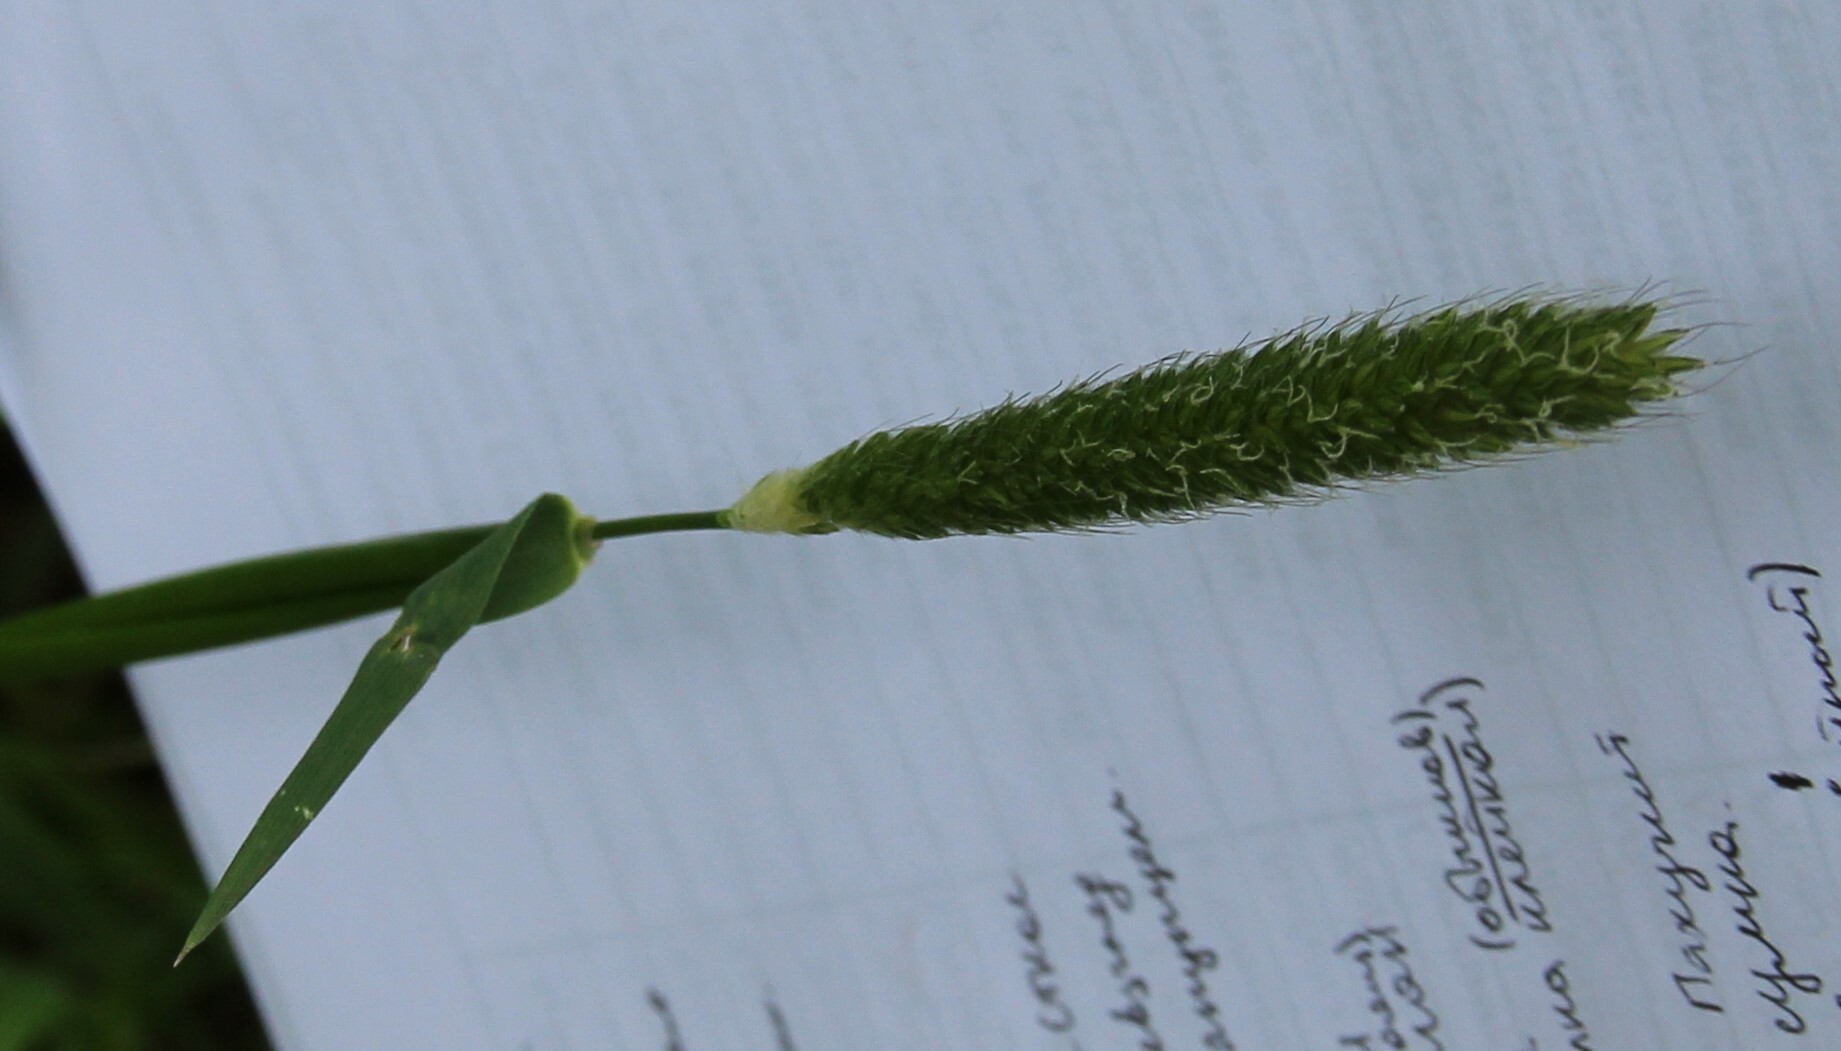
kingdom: Plantae
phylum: Tracheophyta
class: Liliopsida
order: Poales
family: Poaceae
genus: Alopecurus
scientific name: Alopecurus pratensis
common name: Meadow foxtail
